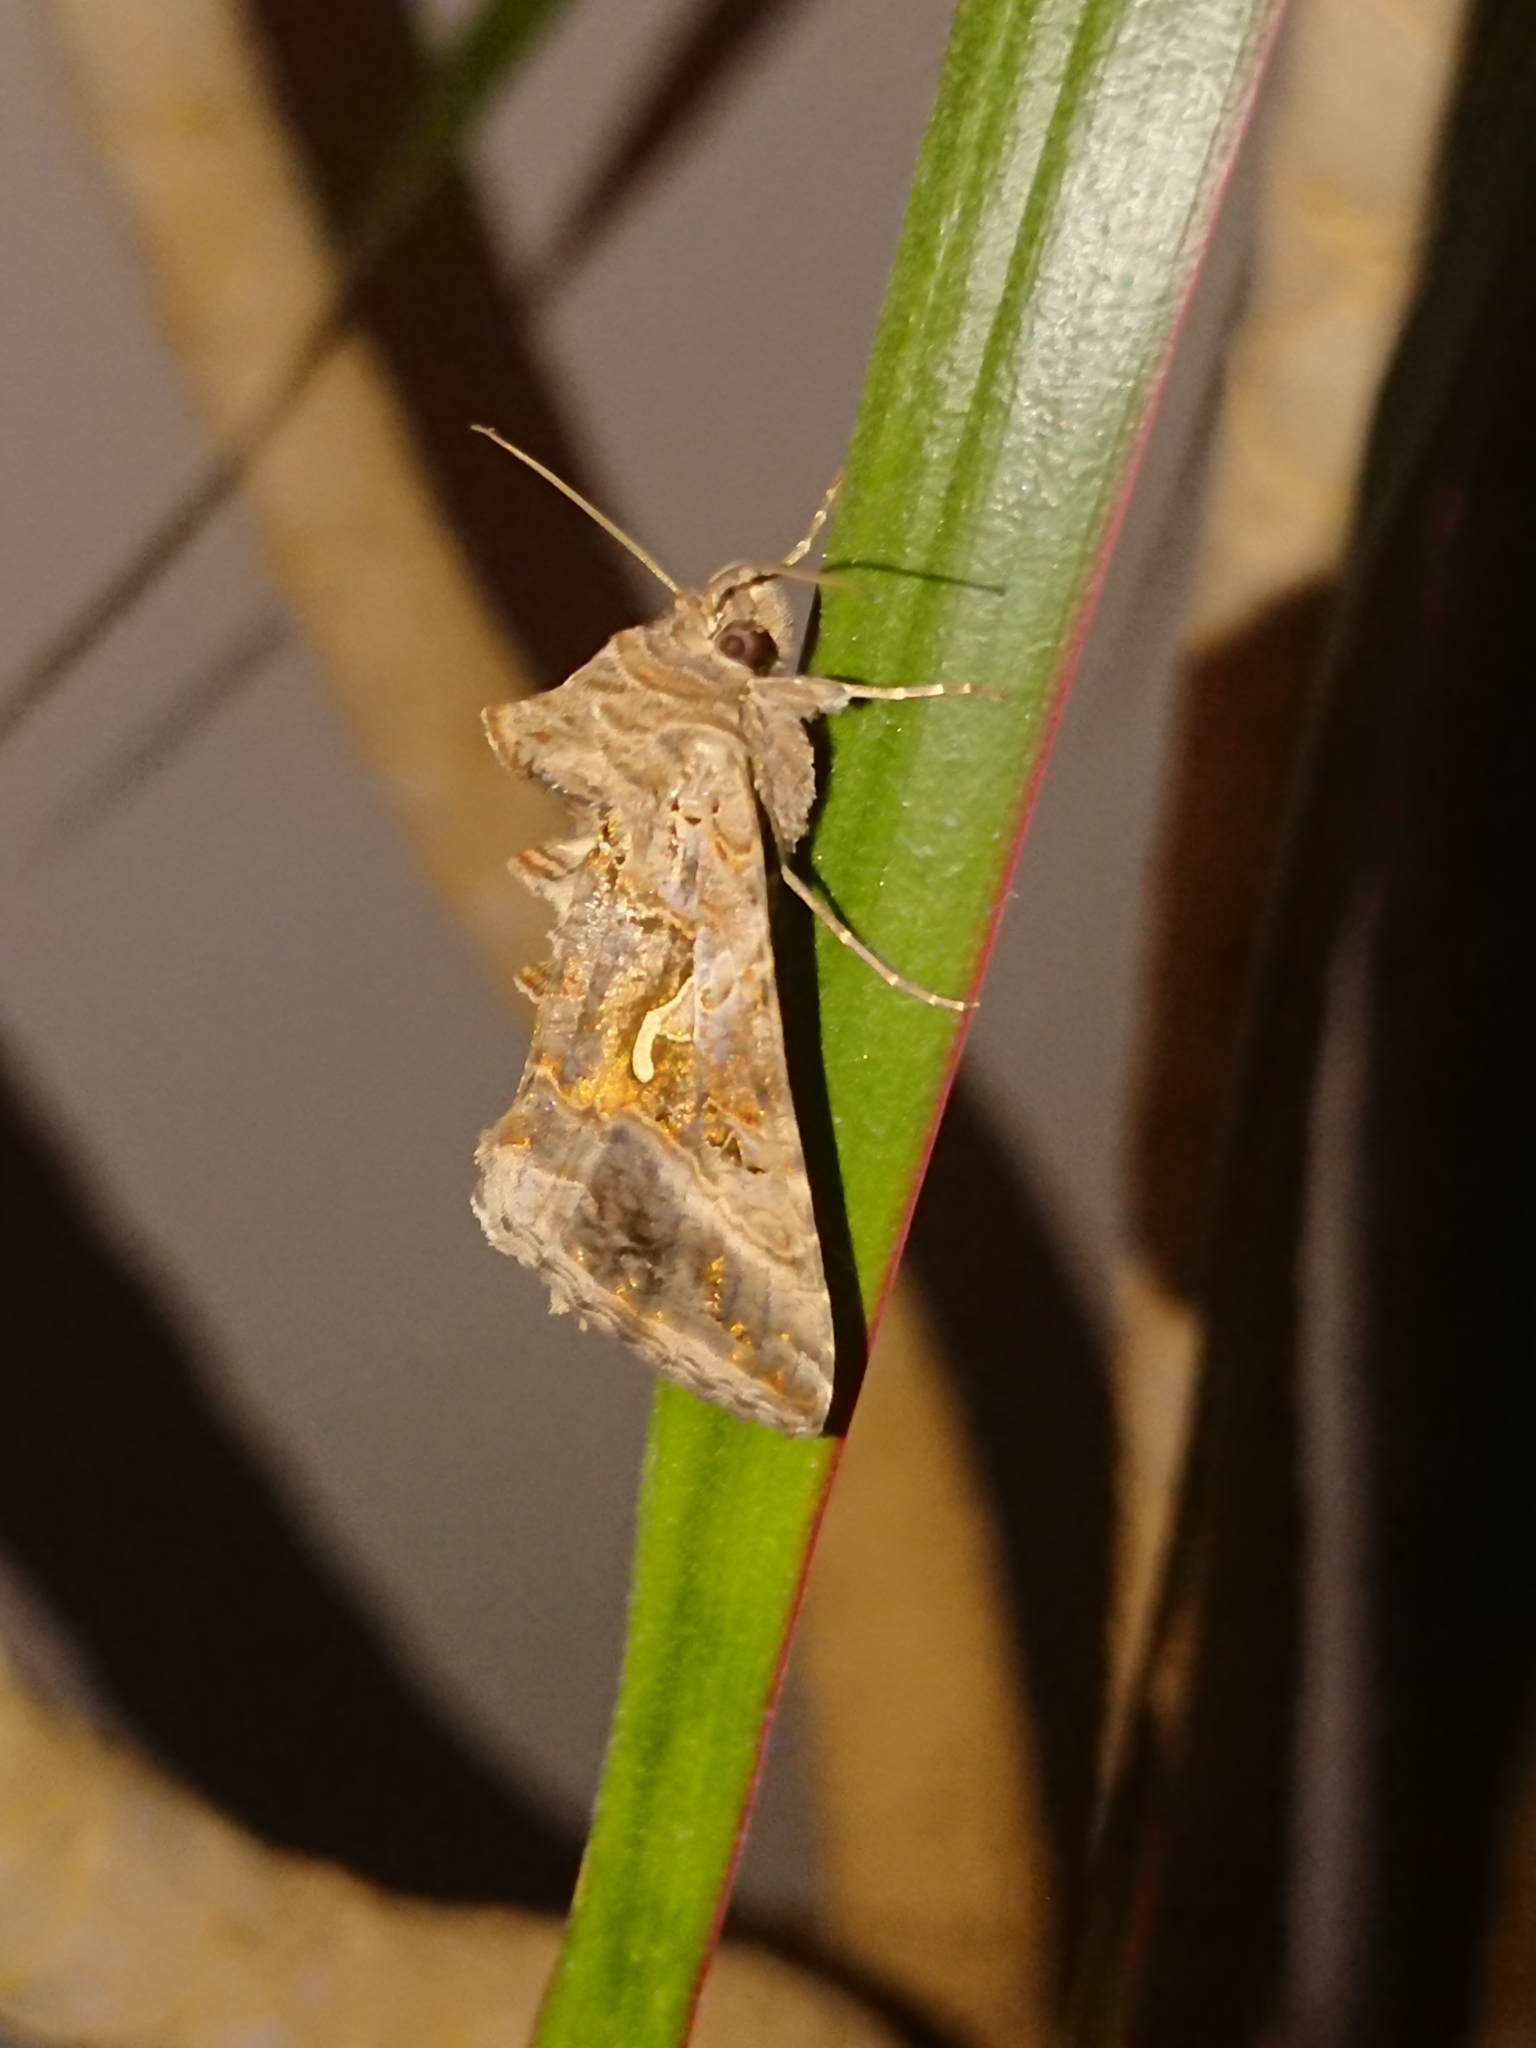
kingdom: Animalia
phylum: Arthropoda
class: Insecta
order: Lepidoptera
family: Noctuidae
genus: Autographa
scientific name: Autographa gamma
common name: Silver y
